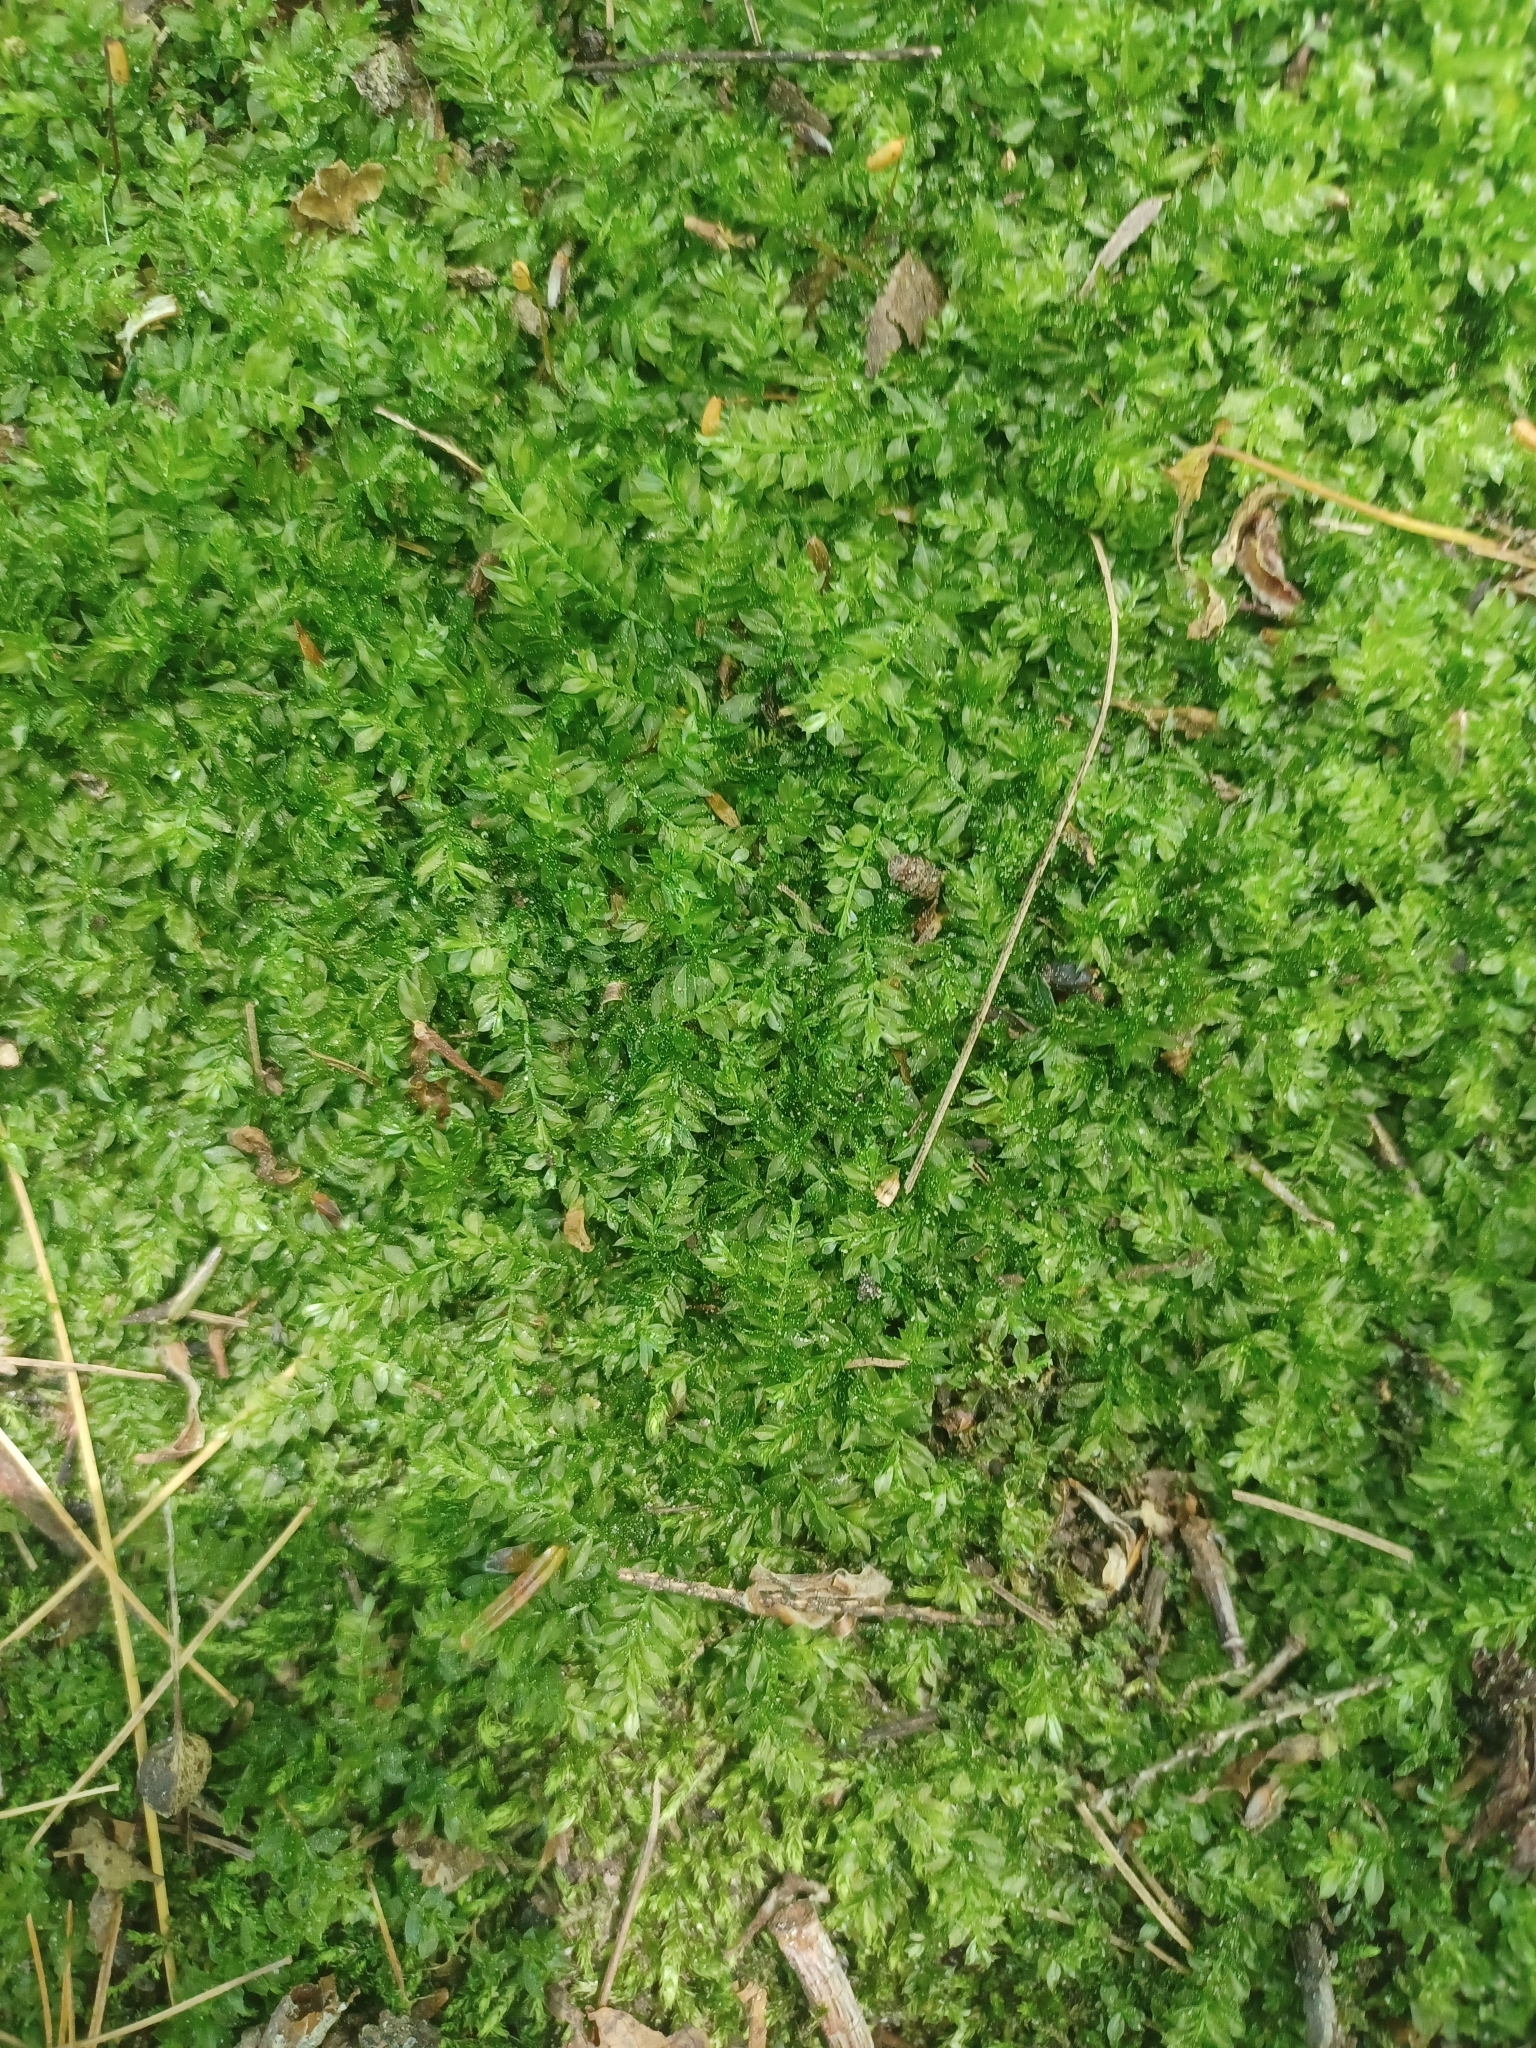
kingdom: Plantae
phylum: Bryophyta
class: Bryopsida
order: Bryales
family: Mniaceae
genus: Plagiomnium
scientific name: Plagiomnium cuspidatum
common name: Woodsy leafy moss
